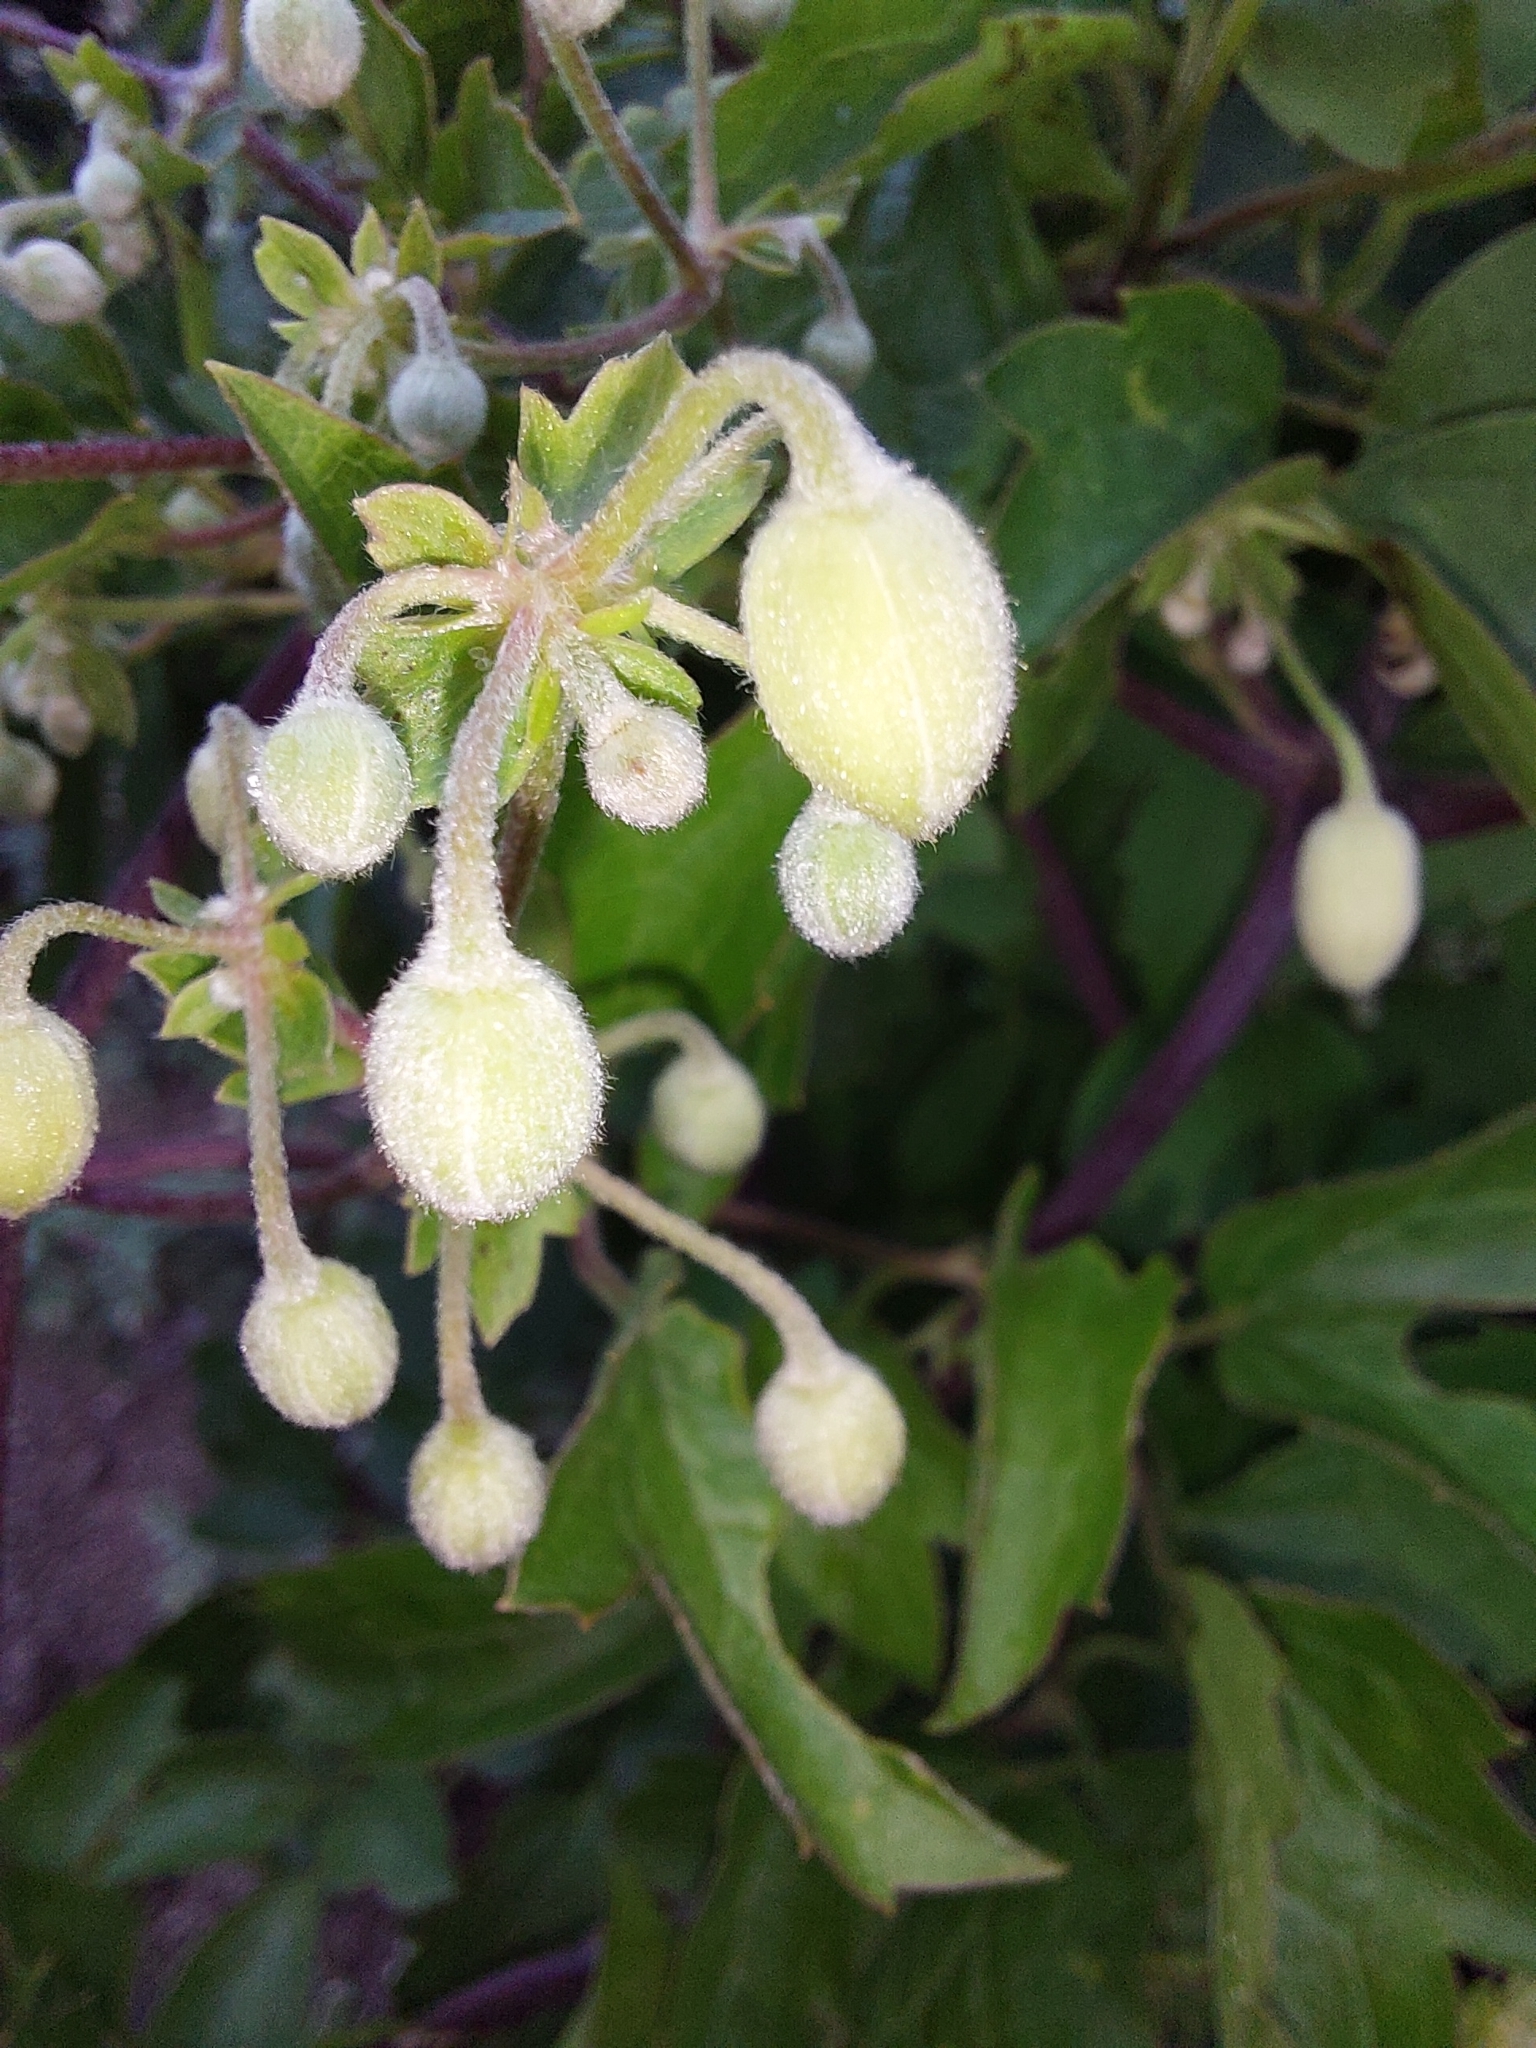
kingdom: Plantae
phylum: Tracheophyta
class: Magnoliopsida
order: Ranunculales
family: Ranunculaceae
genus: Clematis
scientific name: Clematis brachiata
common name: Traveler's-joy
